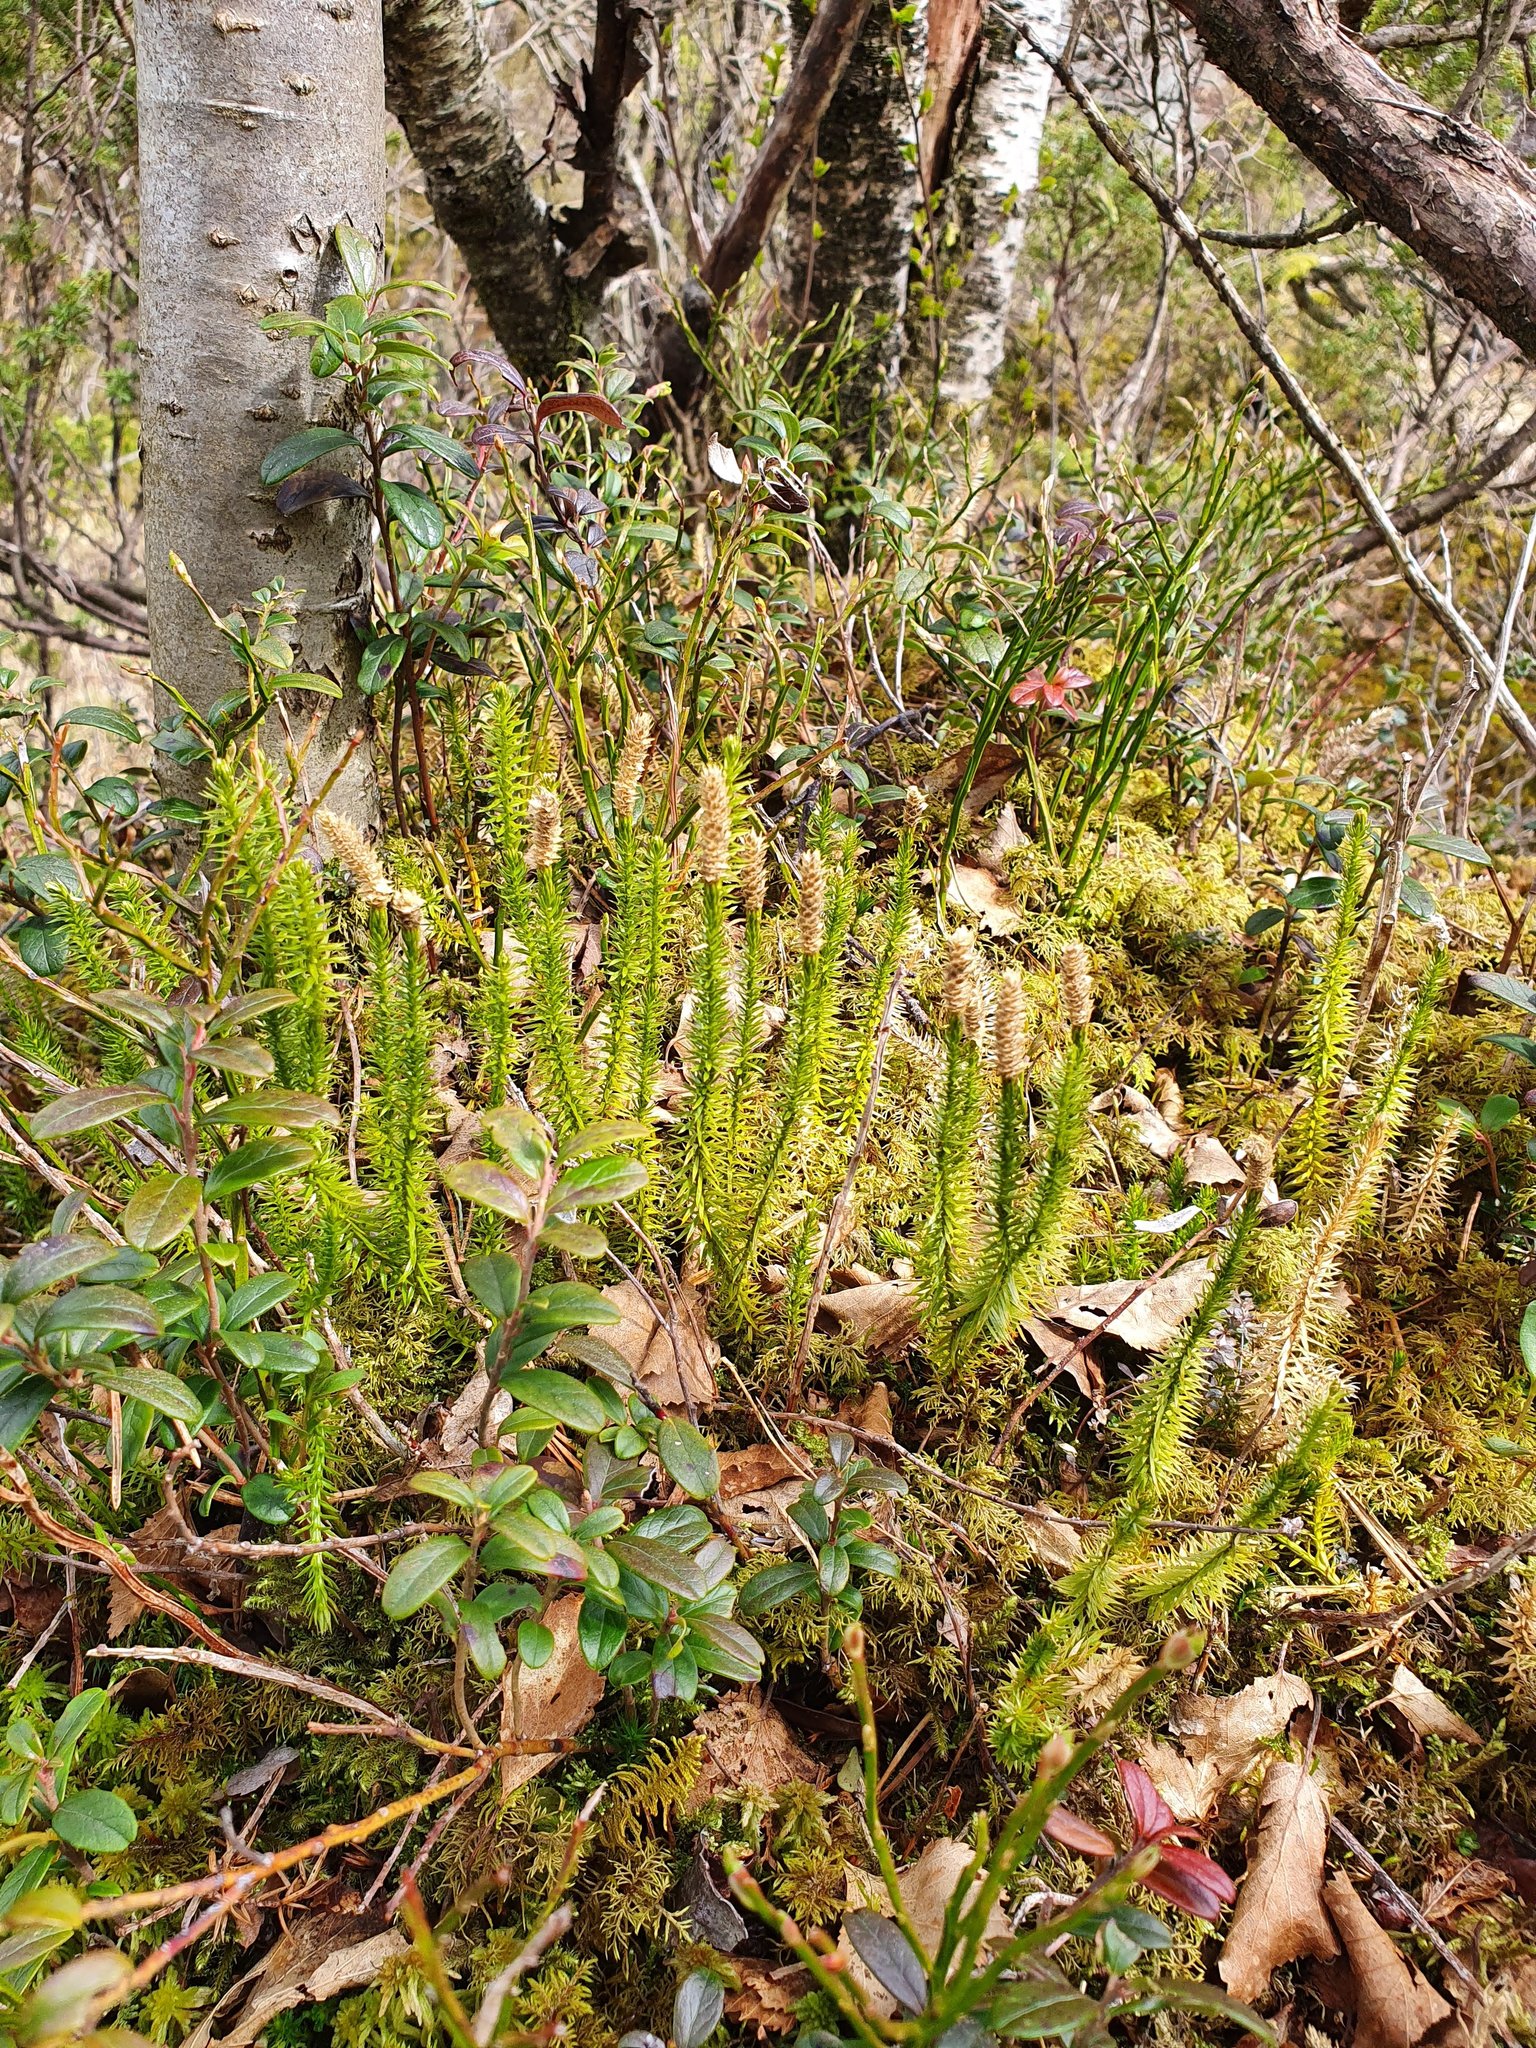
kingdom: Plantae
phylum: Tracheophyta
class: Lycopodiopsida
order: Lycopodiales
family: Lycopodiaceae
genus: Spinulum
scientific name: Spinulum annotinum
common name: Interrupted club-moss
